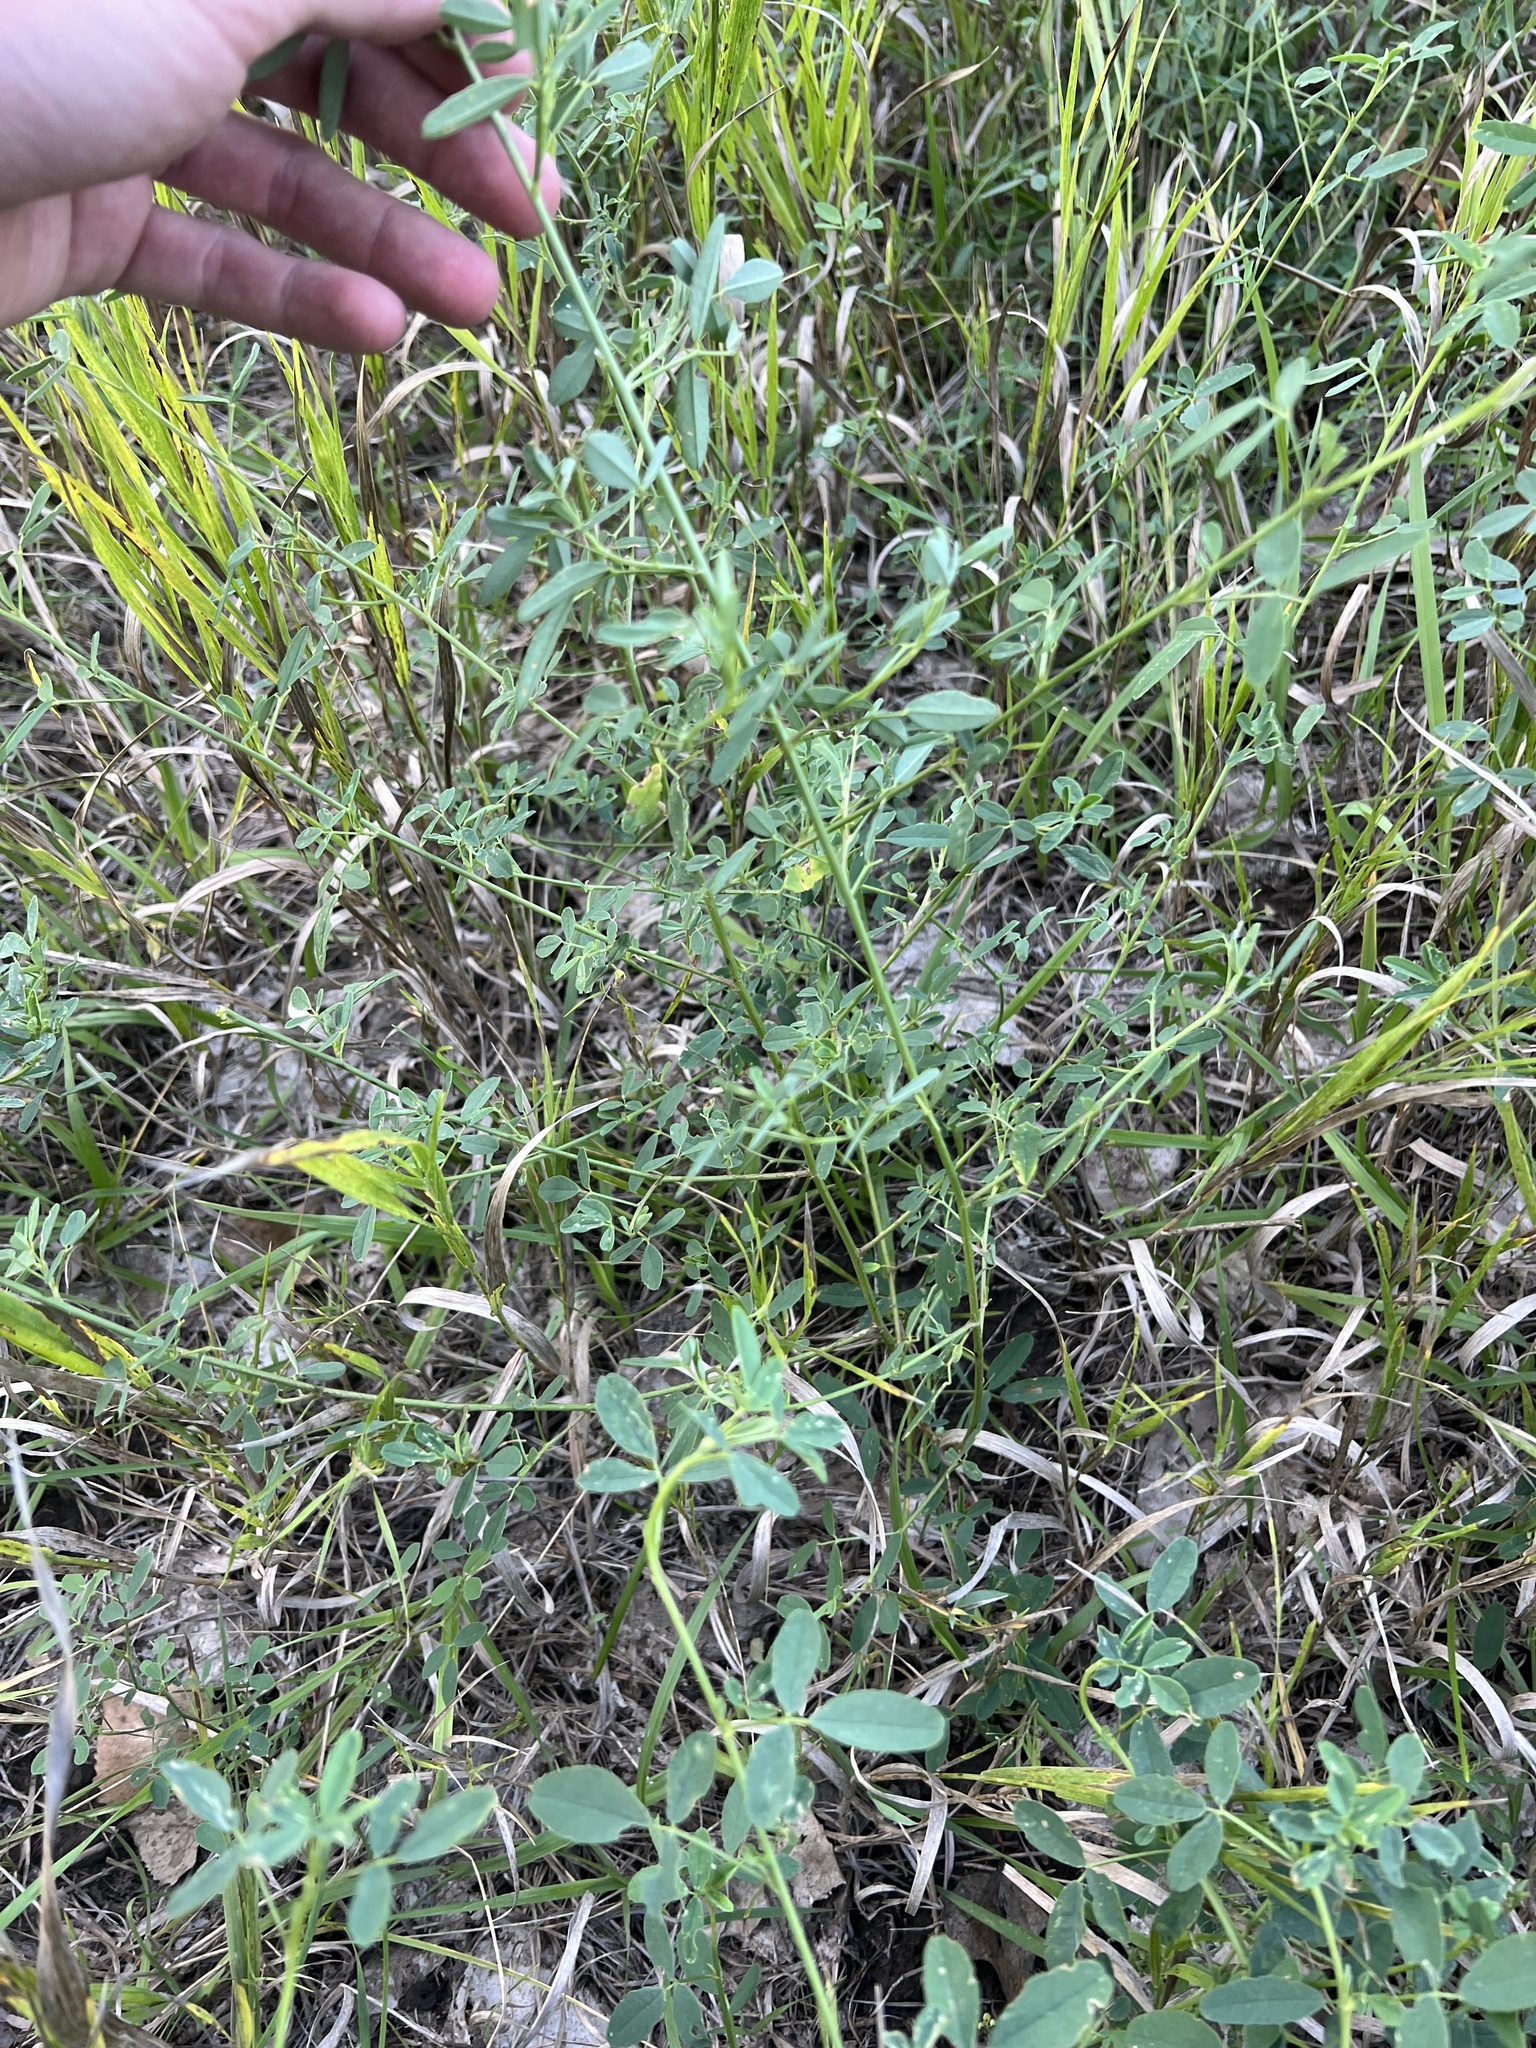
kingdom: Plantae
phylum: Tracheophyta
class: Magnoliopsida
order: Fabales
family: Fabaceae
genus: Medicago
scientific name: Medicago sativa
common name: Alfalfa
